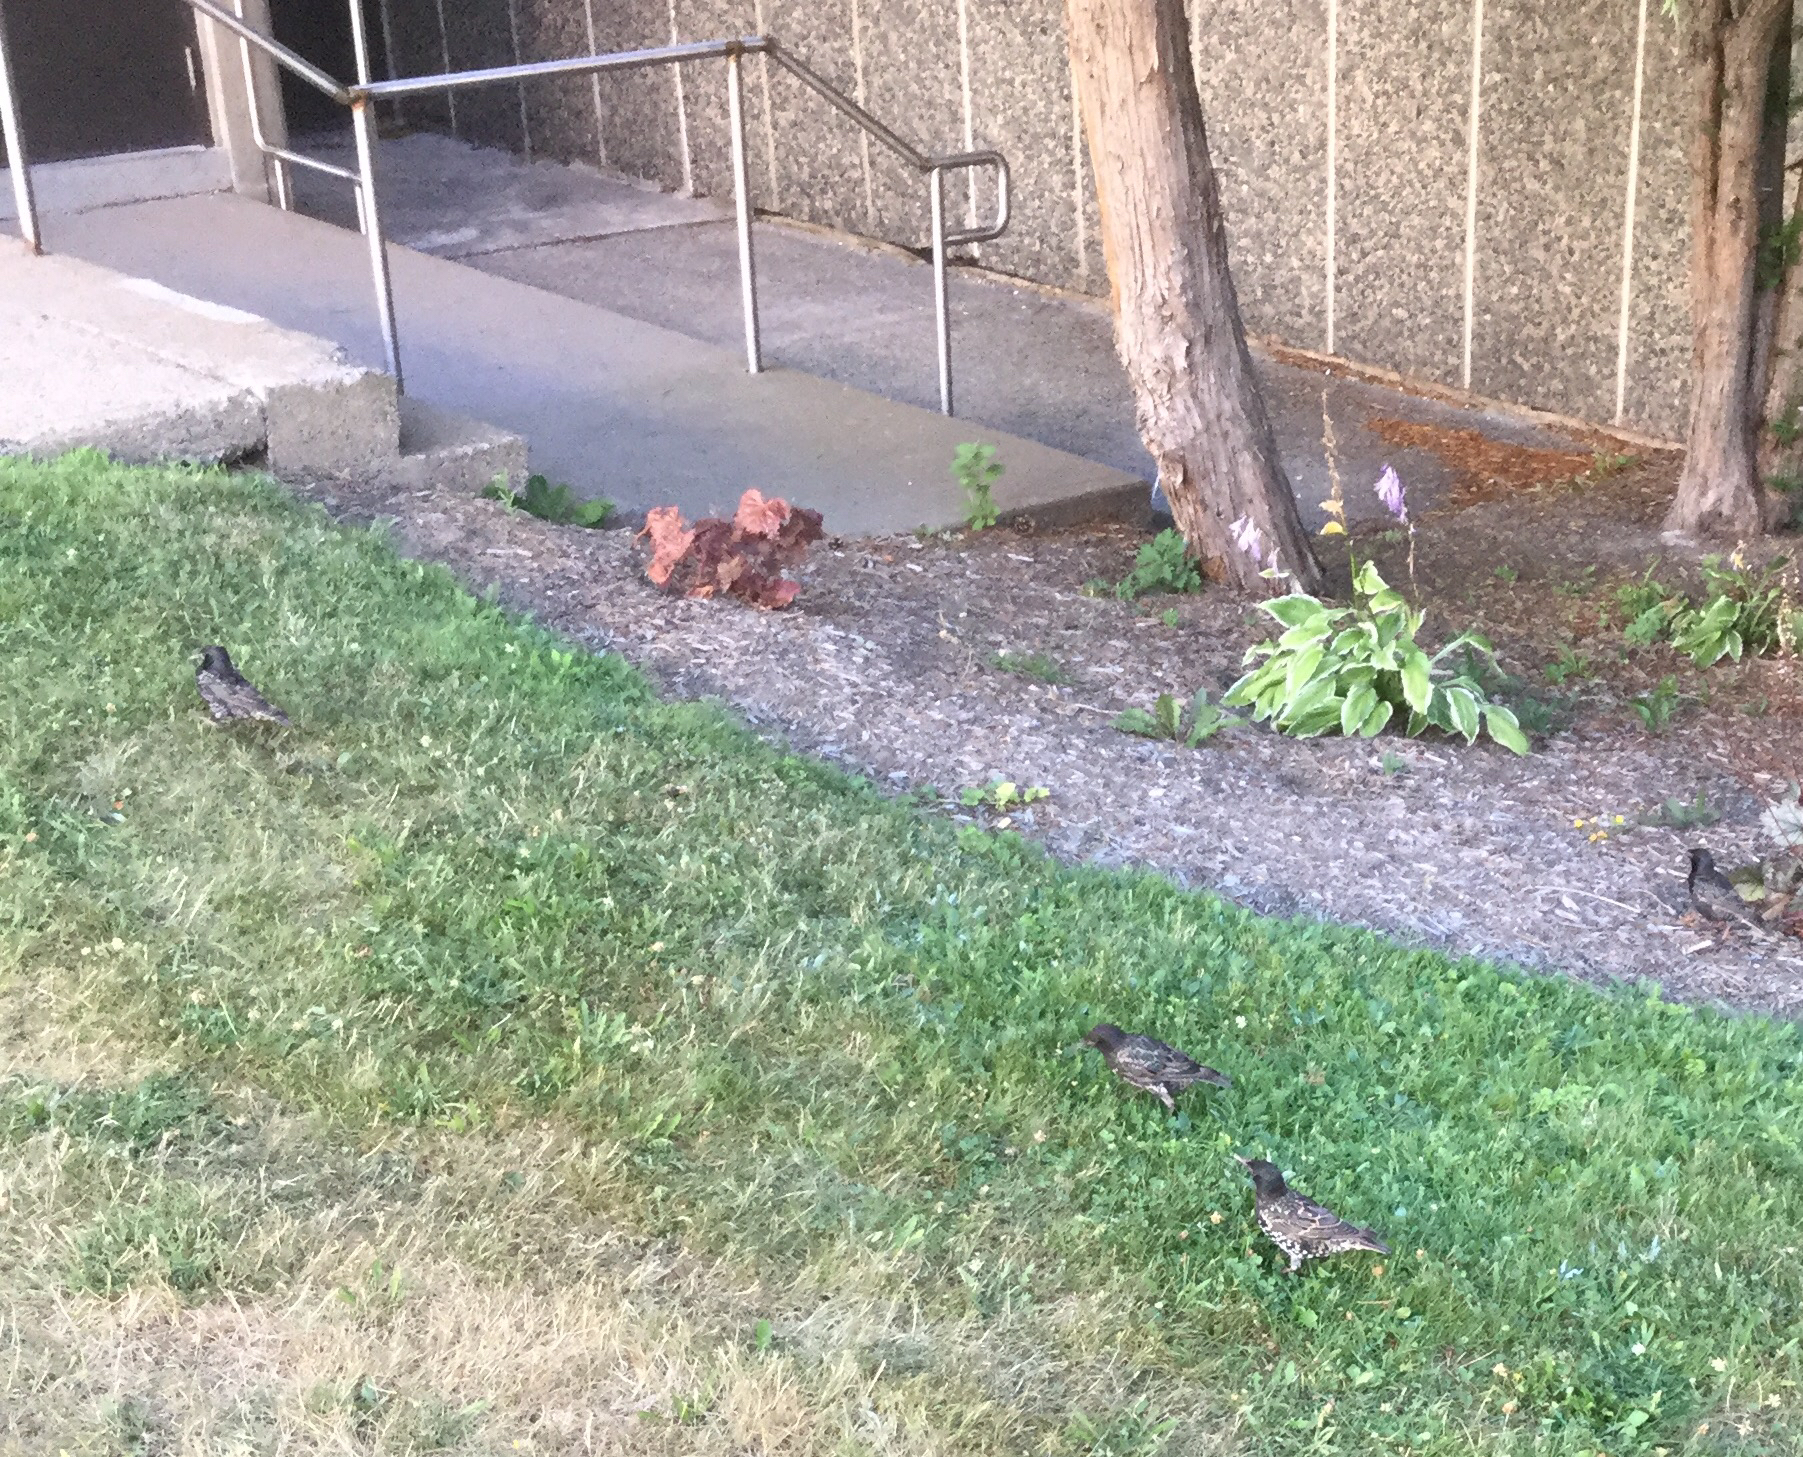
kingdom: Animalia
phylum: Chordata
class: Aves
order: Passeriformes
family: Sturnidae
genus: Sturnus
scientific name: Sturnus vulgaris
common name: Common starling
